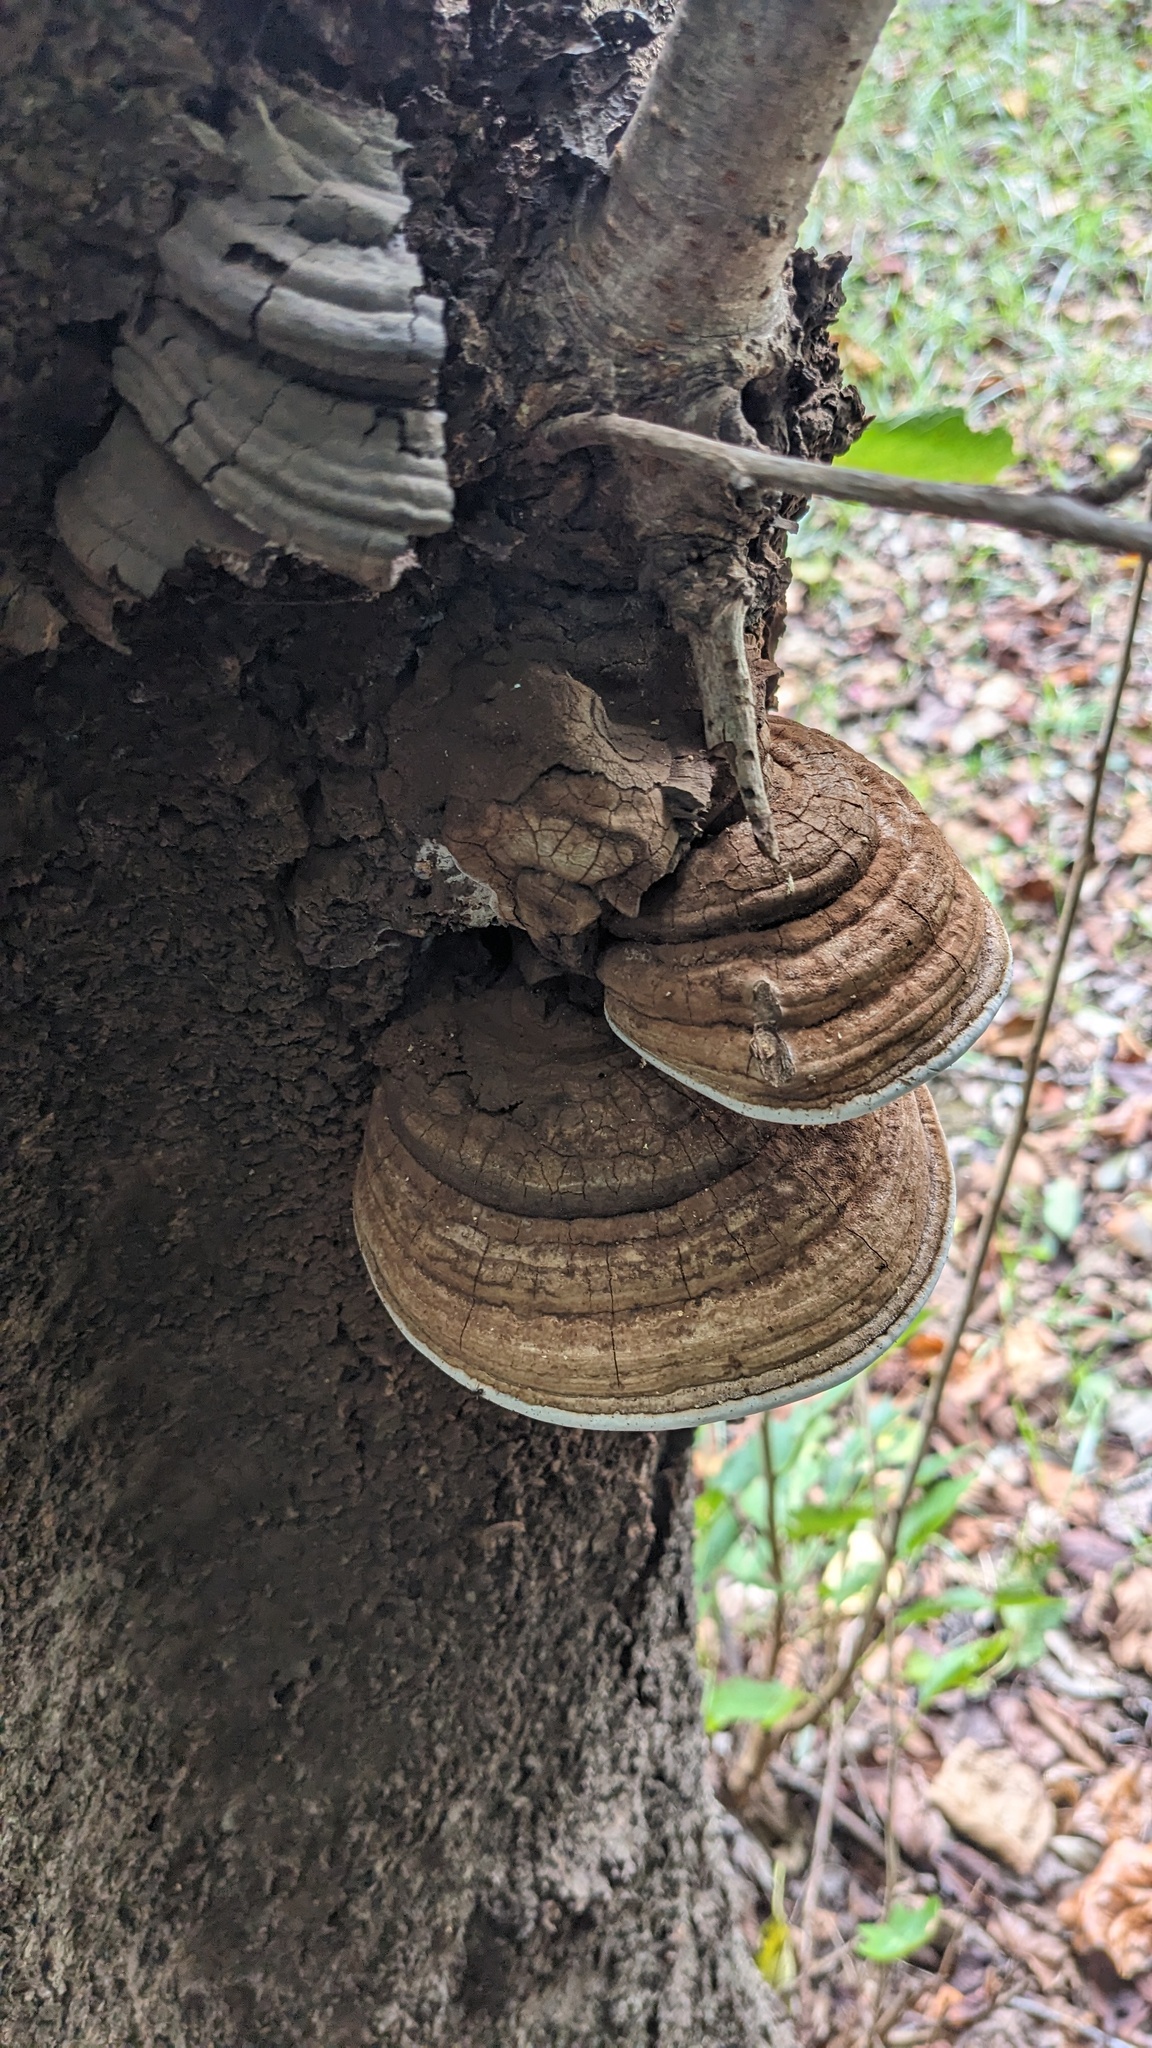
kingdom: Fungi
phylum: Basidiomycota
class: Agaricomycetes
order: Polyporales
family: Polyporaceae
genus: Ganoderma
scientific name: Ganoderma applanatum
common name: Artist's bracket
